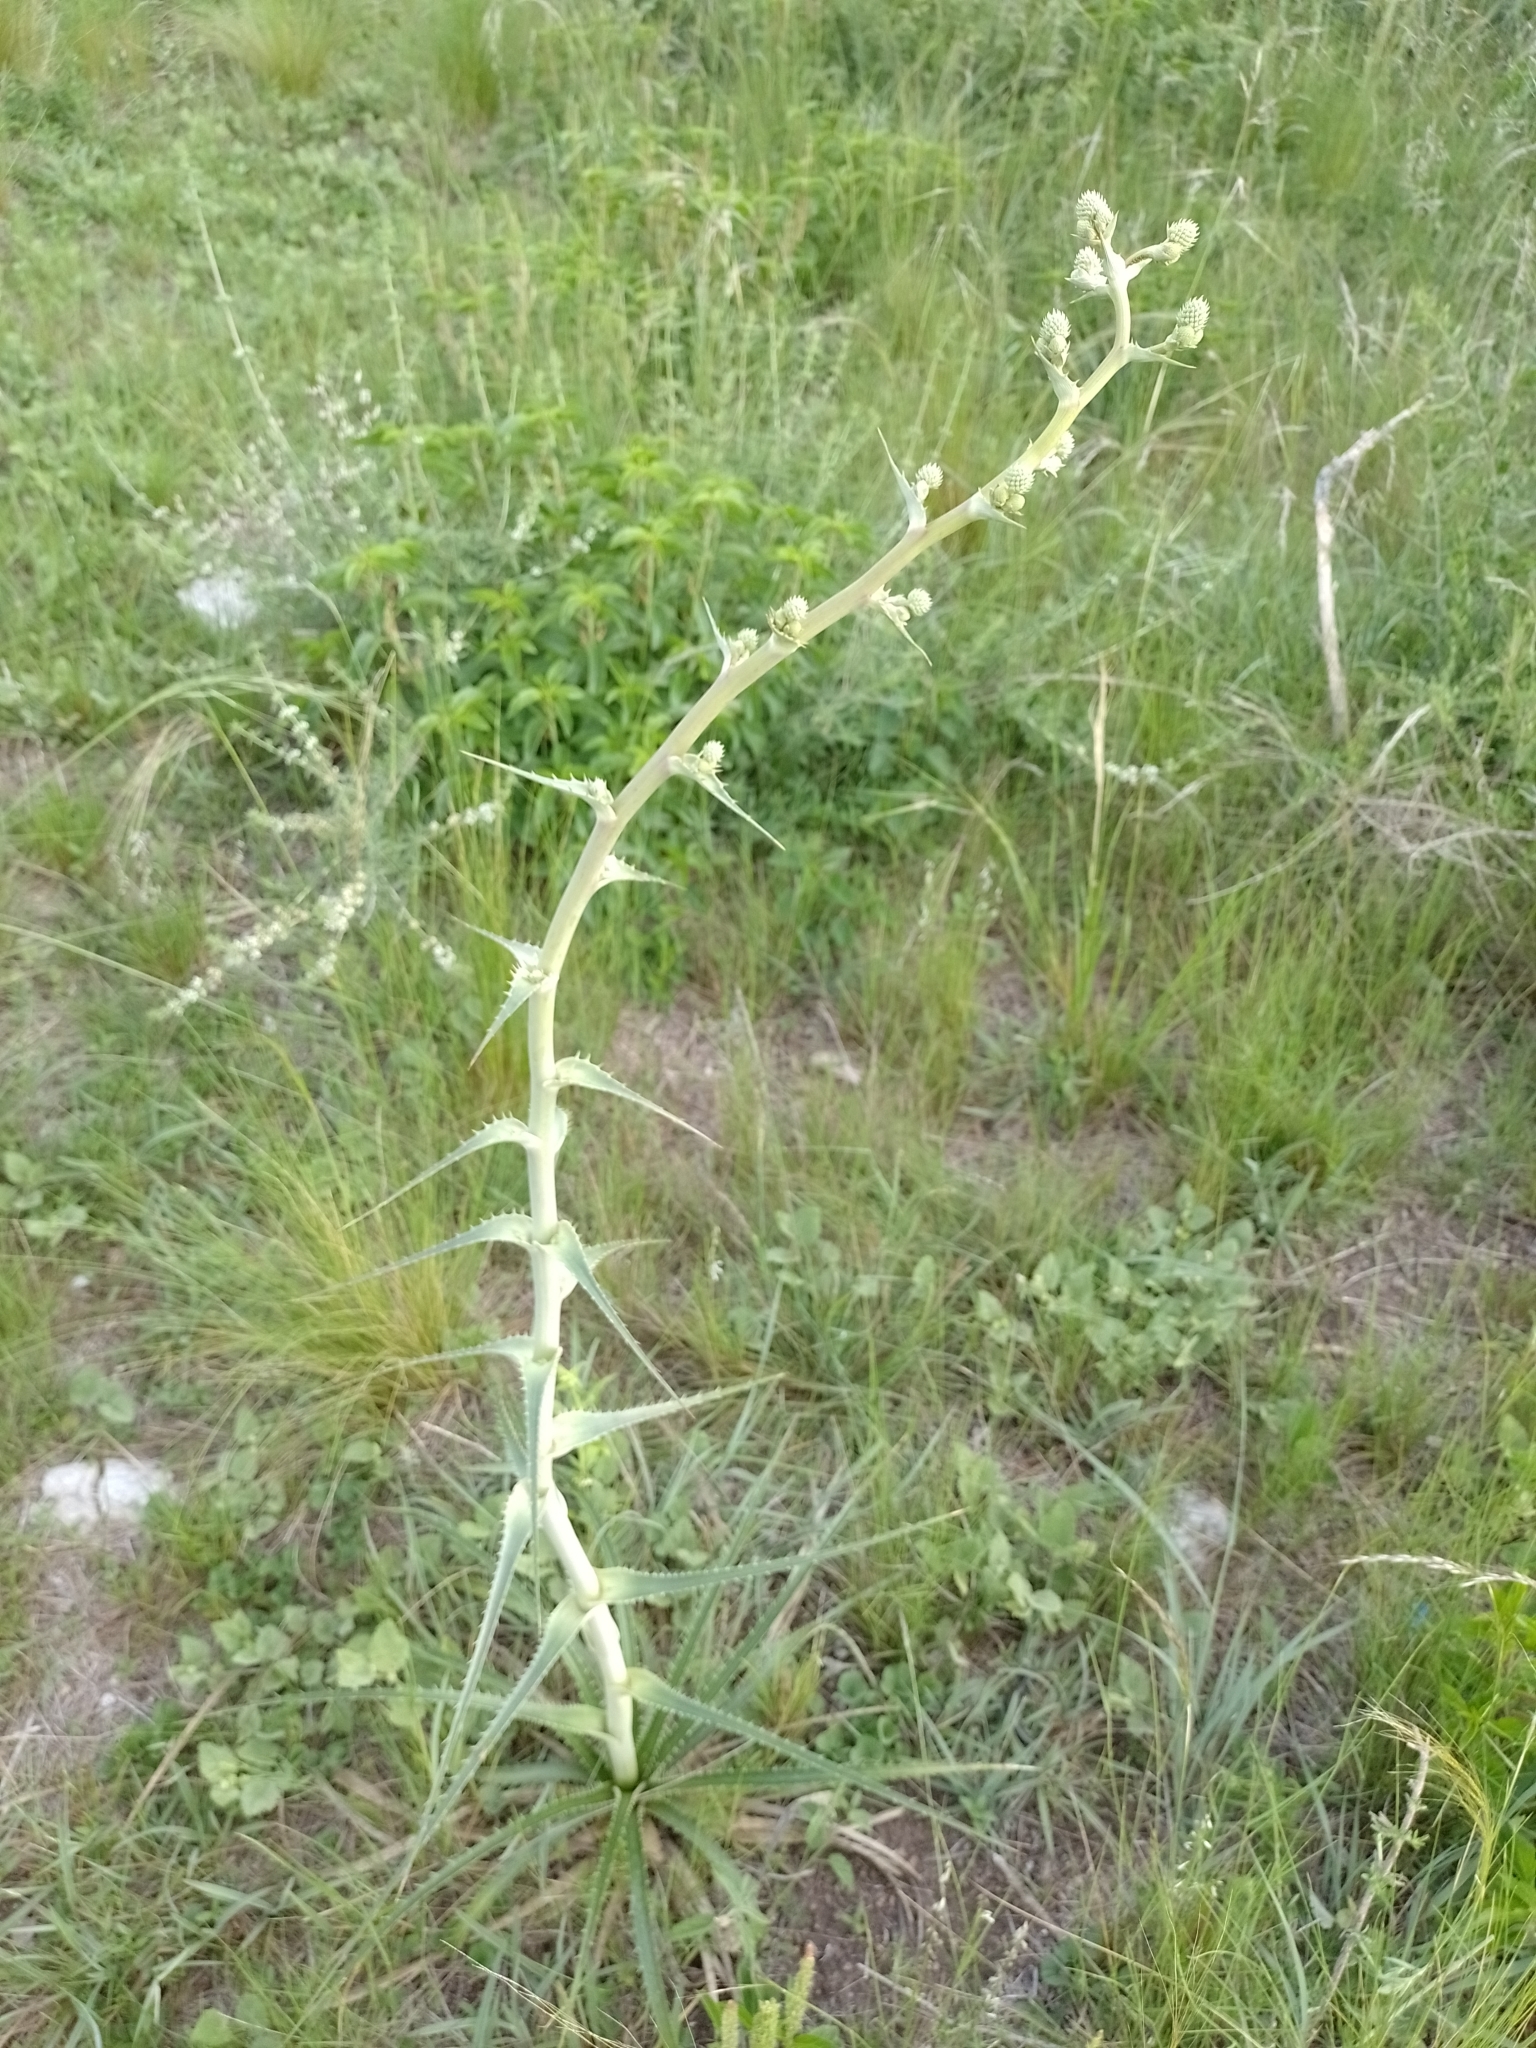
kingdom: Plantae
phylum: Tracheophyta
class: Magnoliopsida
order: Apiales
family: Apiaceae
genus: Eryngium
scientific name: Eryngium horridum
